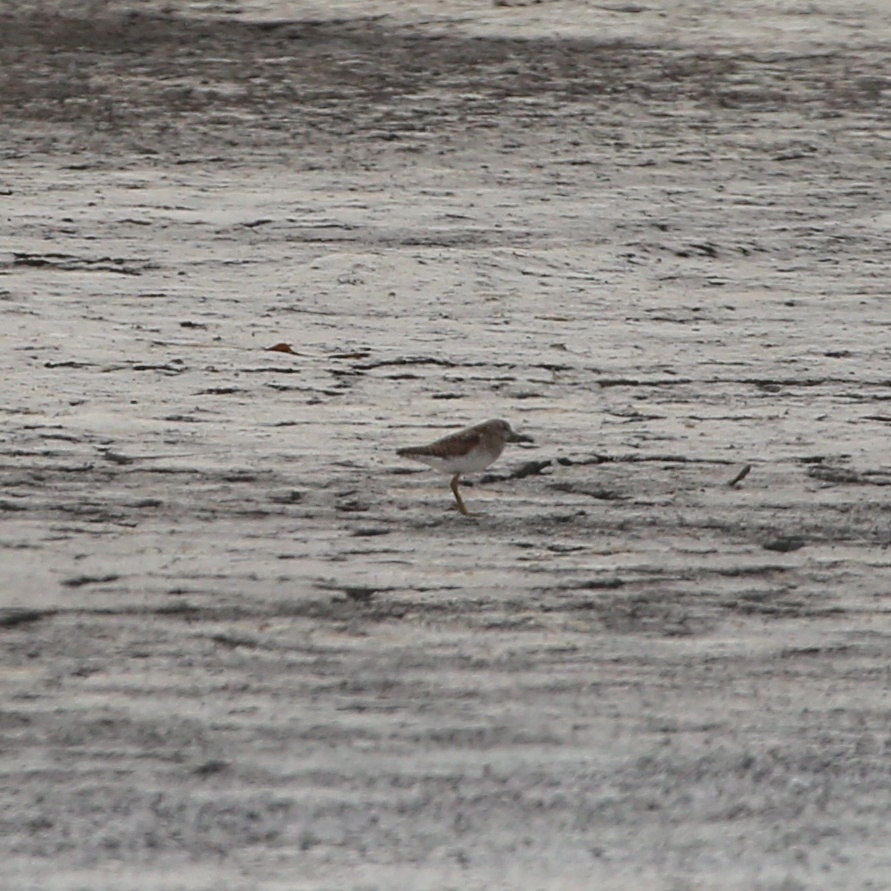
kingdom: Animalia
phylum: Chordata
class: Aves
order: Charadriiformes
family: Scolopacidae
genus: Tringa
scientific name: Tringa glareola
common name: Wood sandpiper
